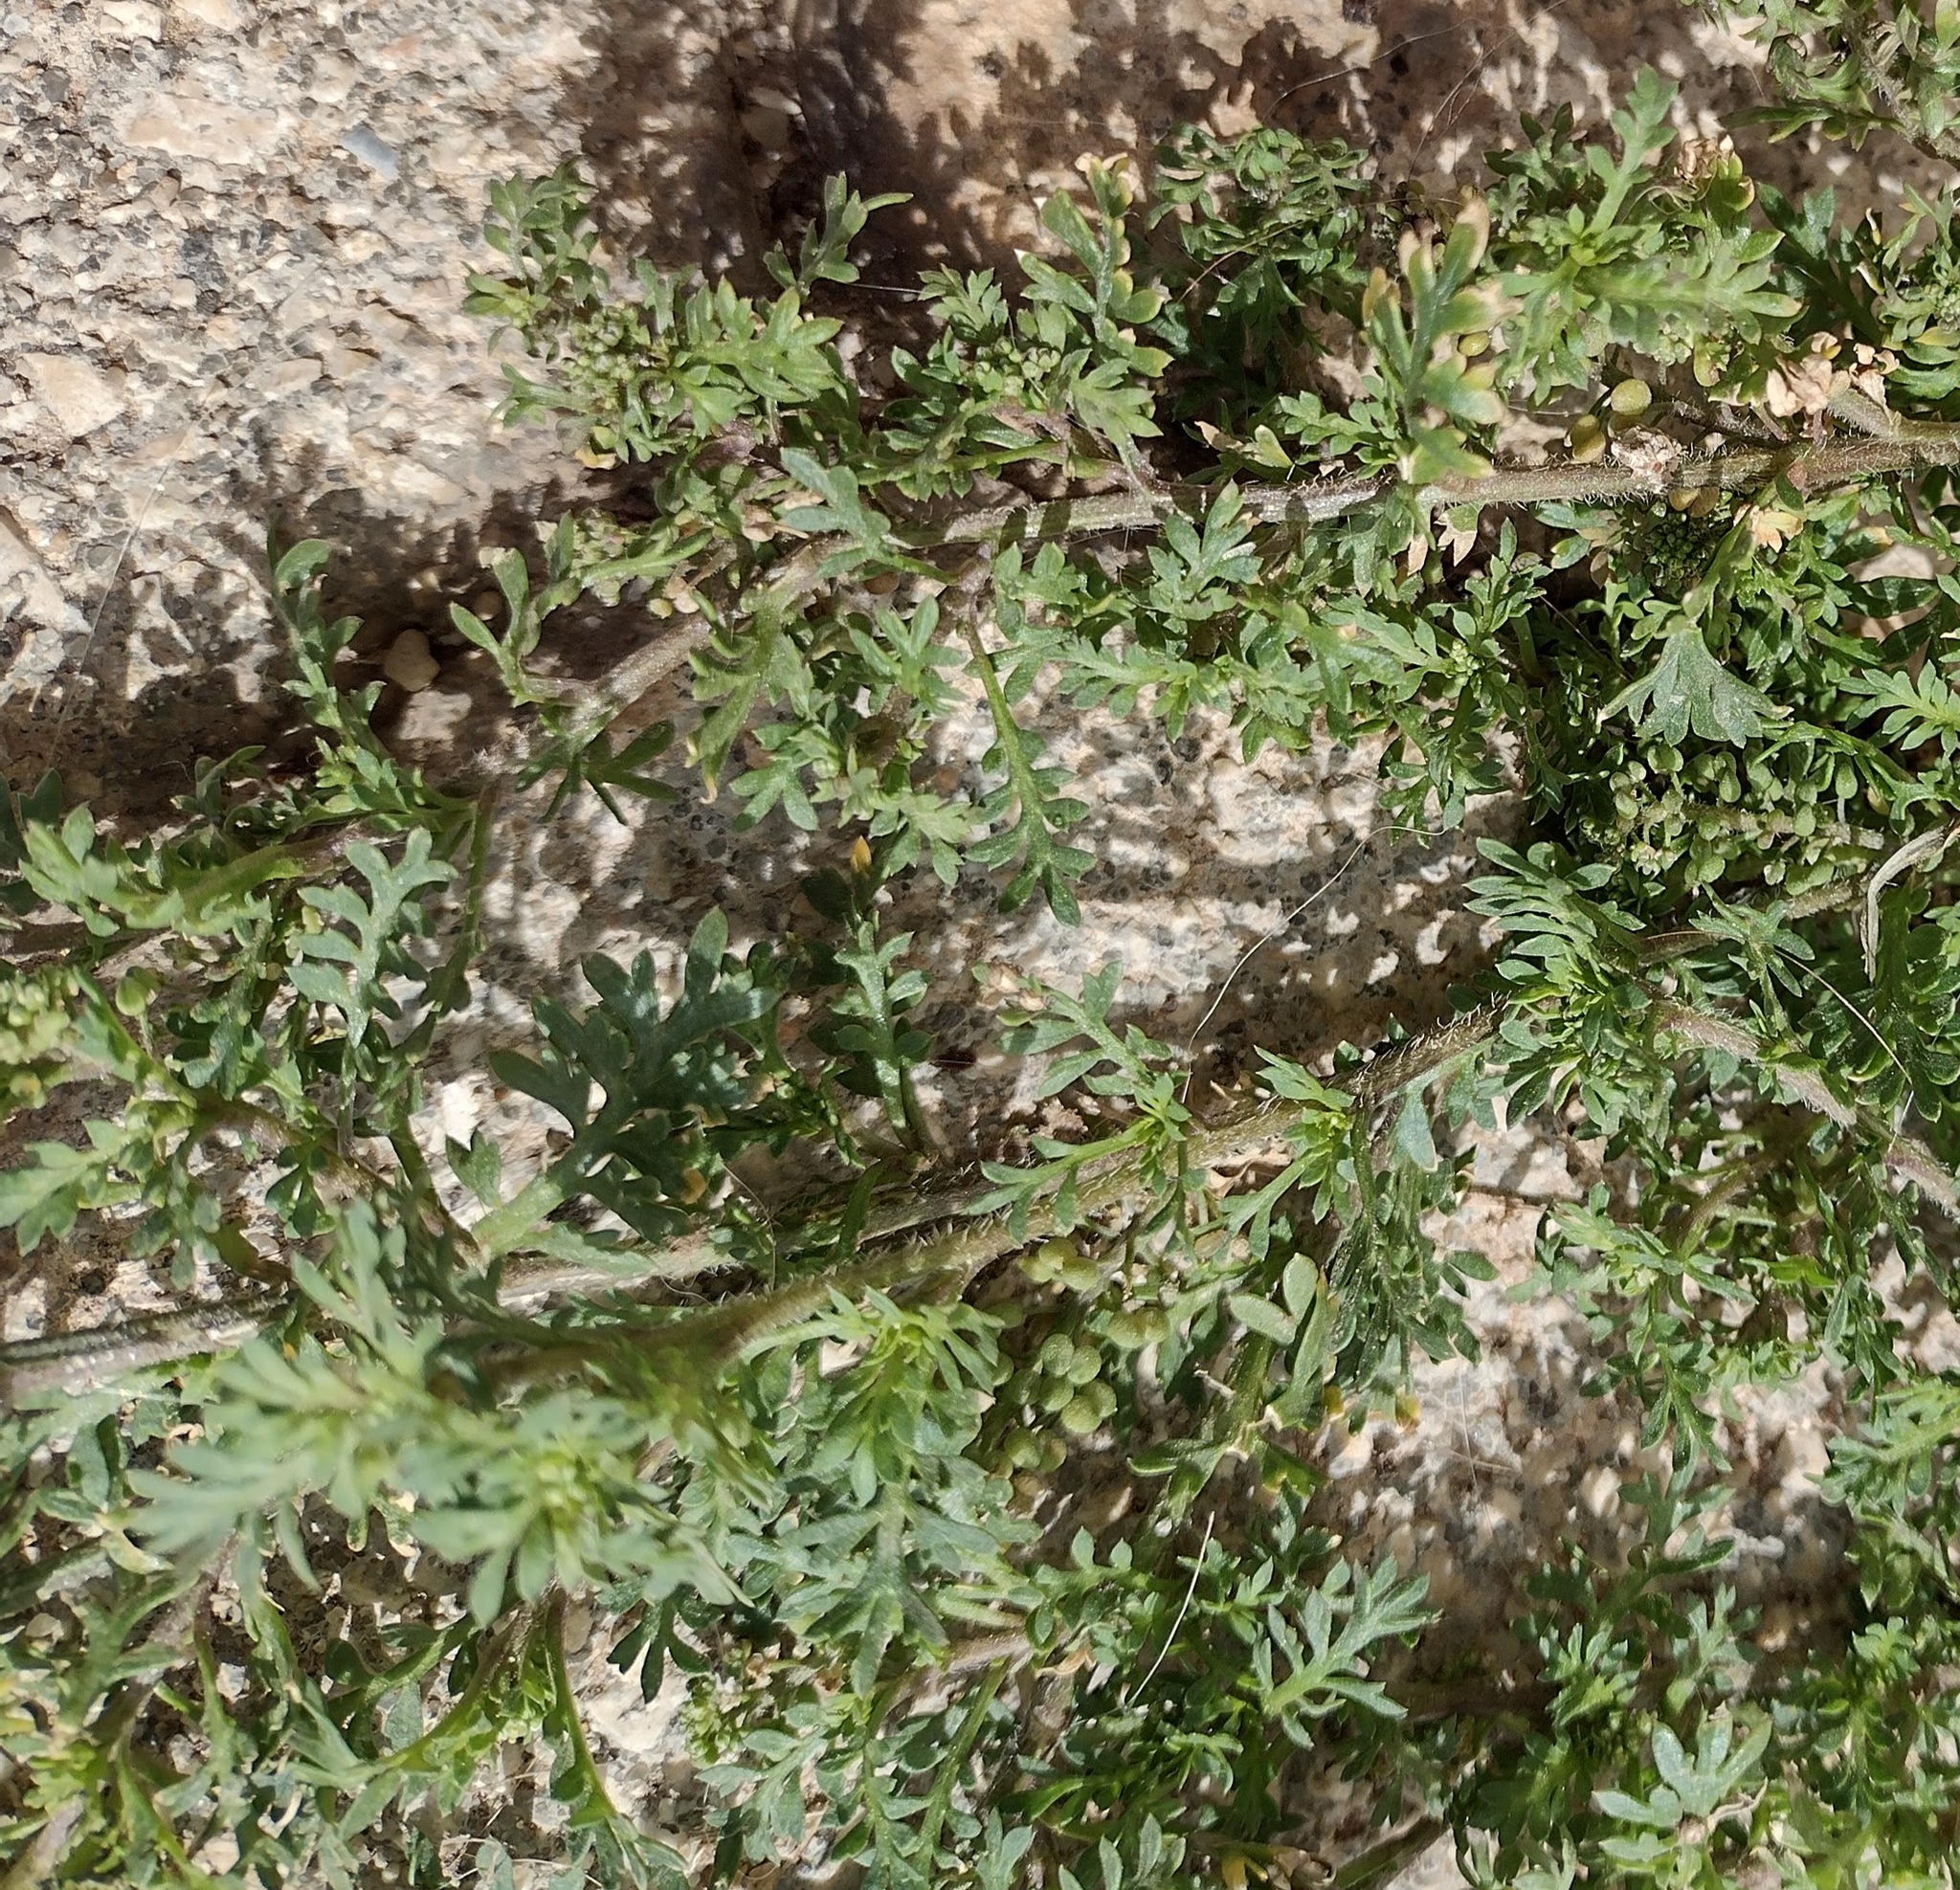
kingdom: Plantae
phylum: Tracheophyta
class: Magnoliopsida
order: Brassicales
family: Brassicaceae
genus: Lepidium
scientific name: Lepidium didymum
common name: Lesser swinecress
